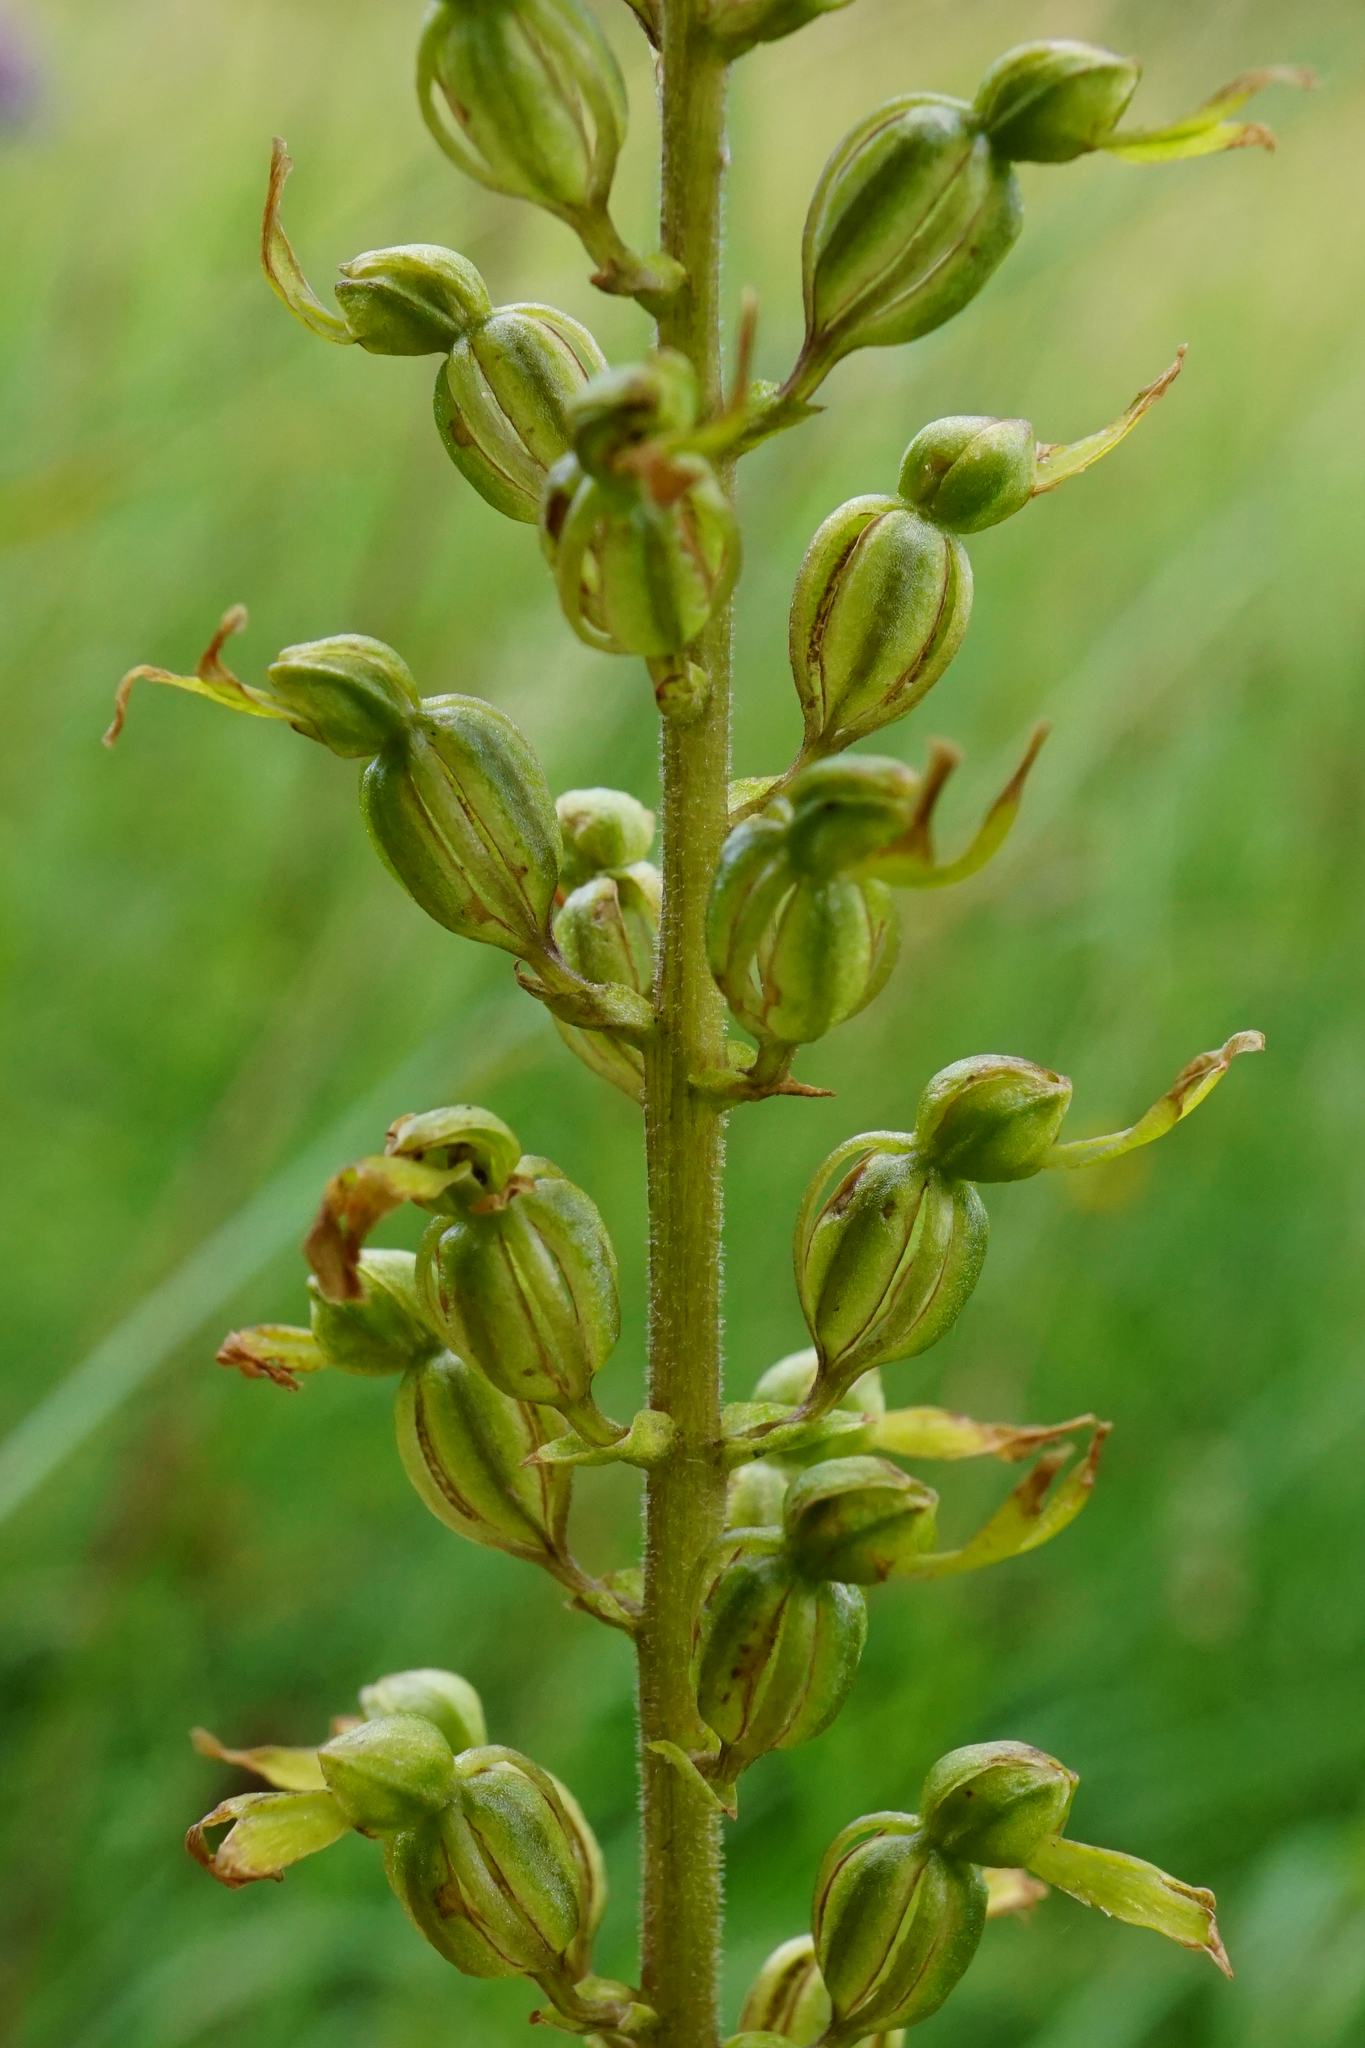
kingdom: Plantae
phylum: Tracheophyta
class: Liliopsida
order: Asparagales
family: Orchidaceae
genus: Neottia
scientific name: Neottia ovata
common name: Common twayblade
